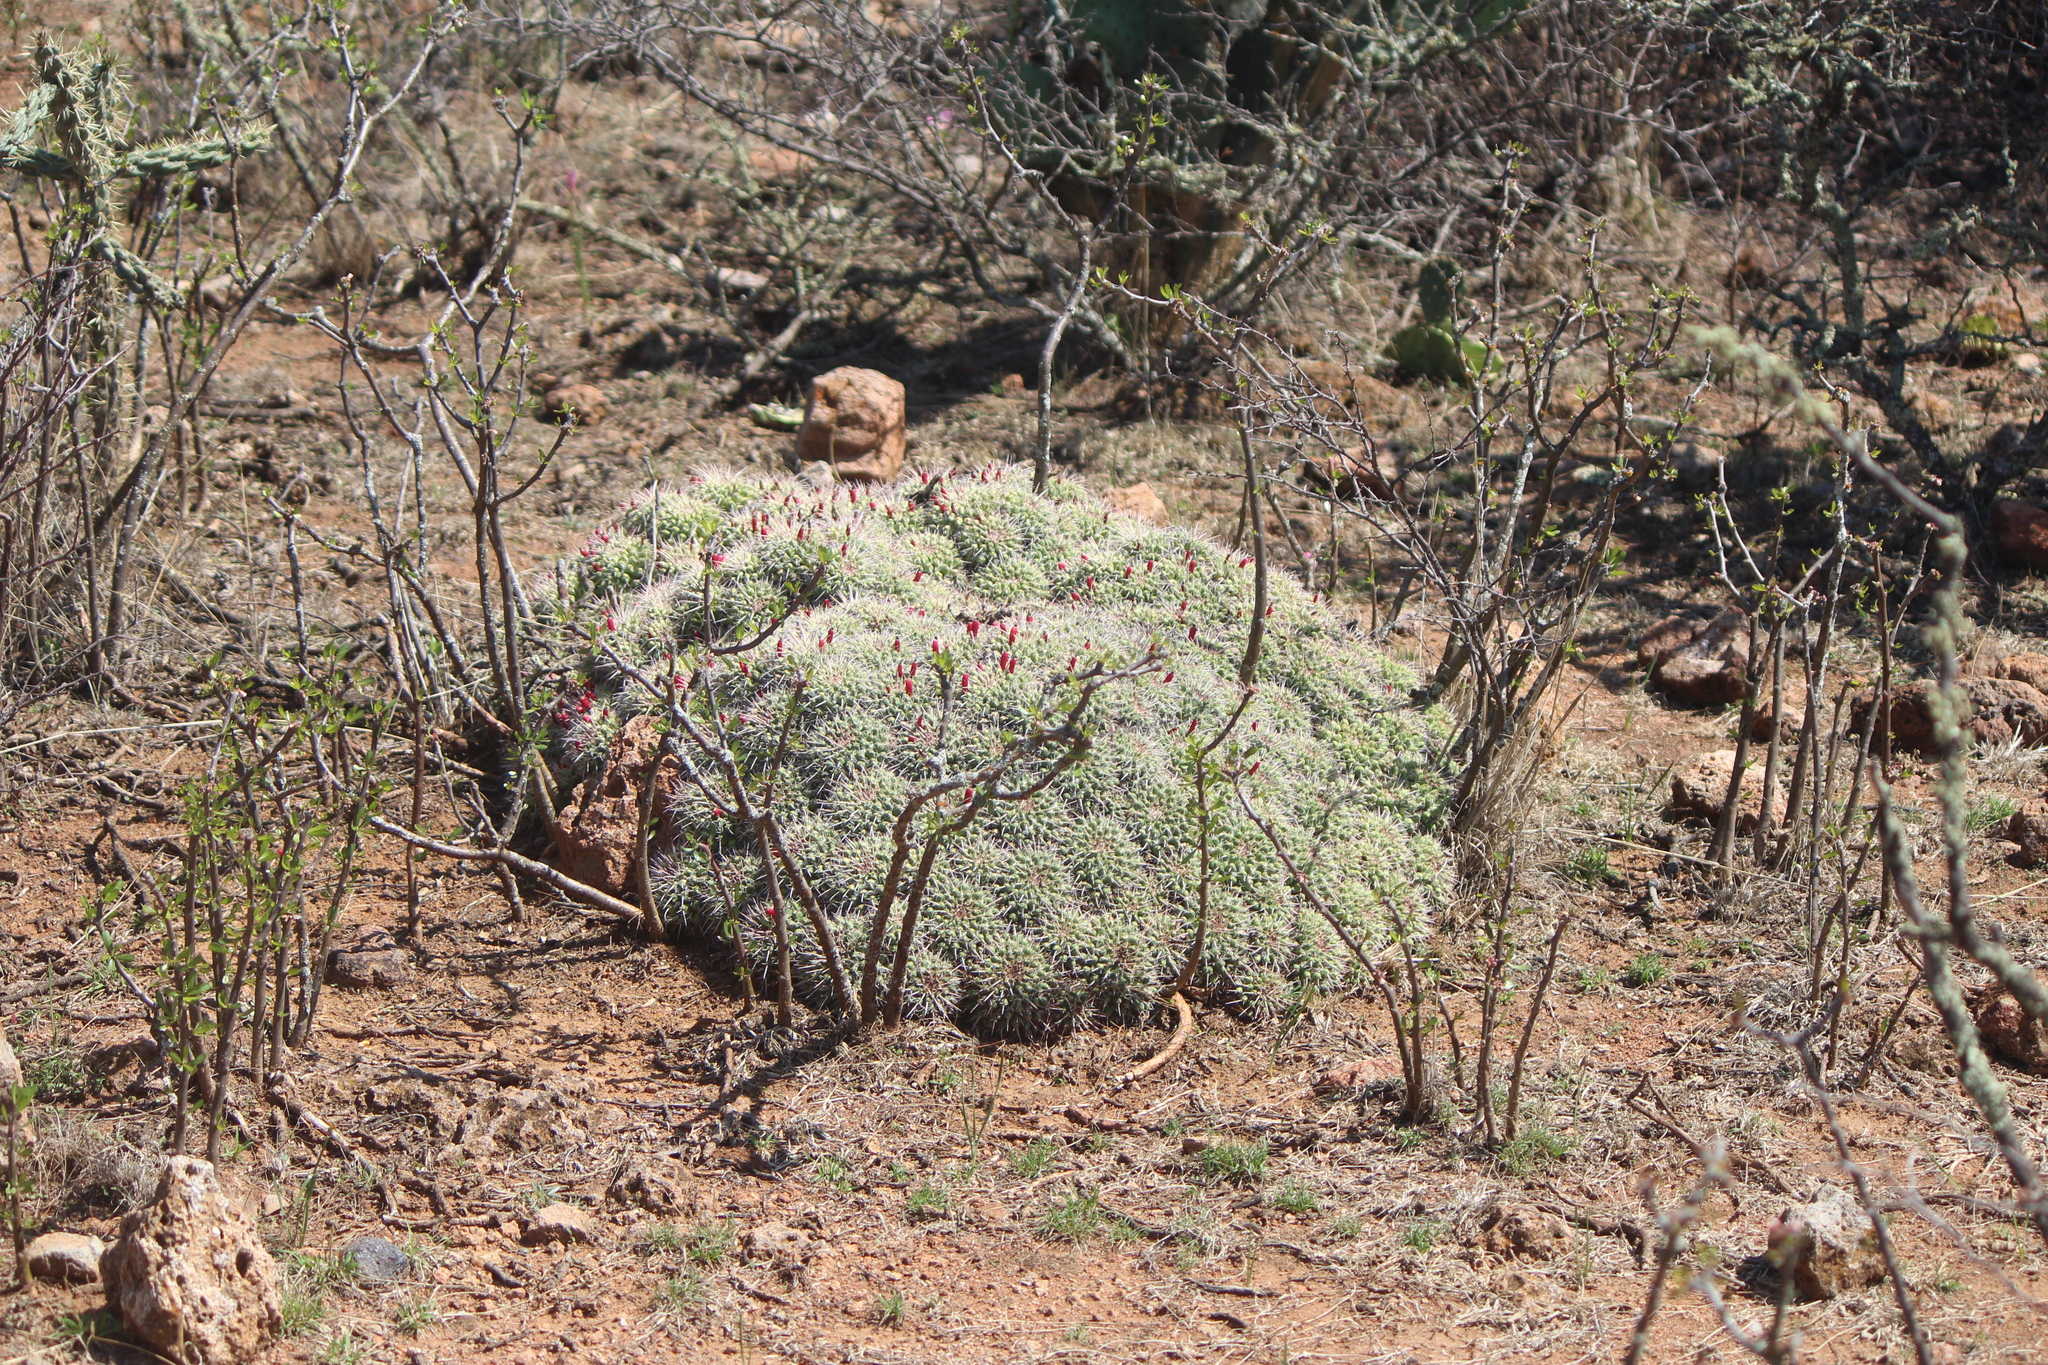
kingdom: Plantae
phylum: Tracheophyta
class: Magnoliopsida
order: Caryophyllales
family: Cactaceae
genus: Mammillaria
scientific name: Mammillaria compressa
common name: Mother-of-hundreds
